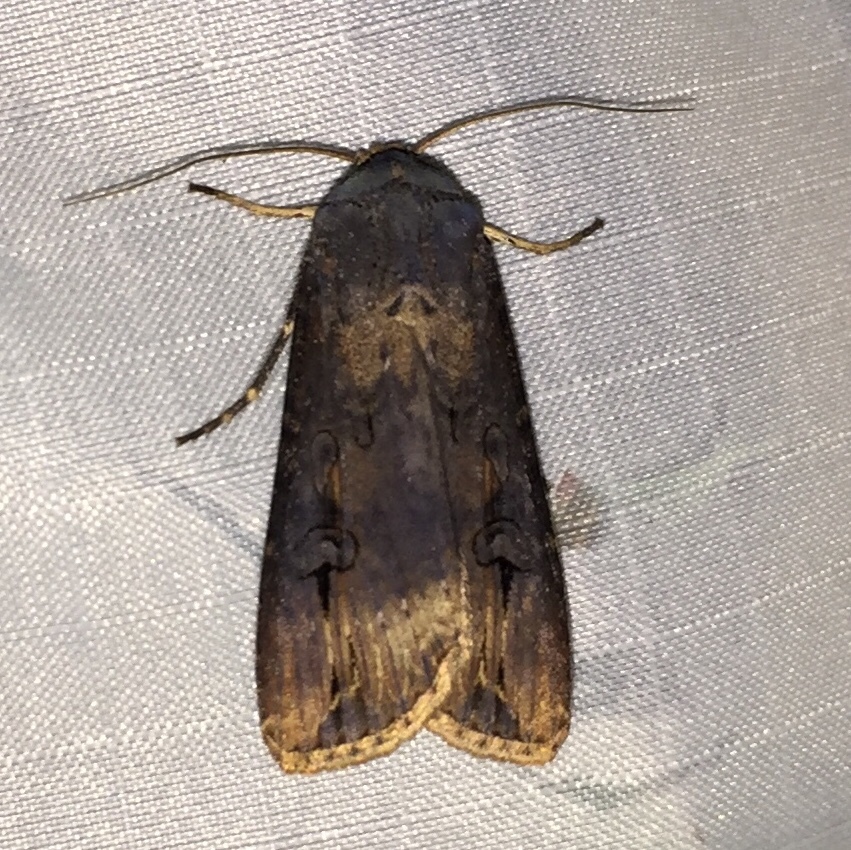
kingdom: Animalia
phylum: Arthropoda
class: Insecta
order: Lepidoptera
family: Noctuidae
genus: Agrotis
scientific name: Agrotis ipsilon
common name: Dark sword-grass
